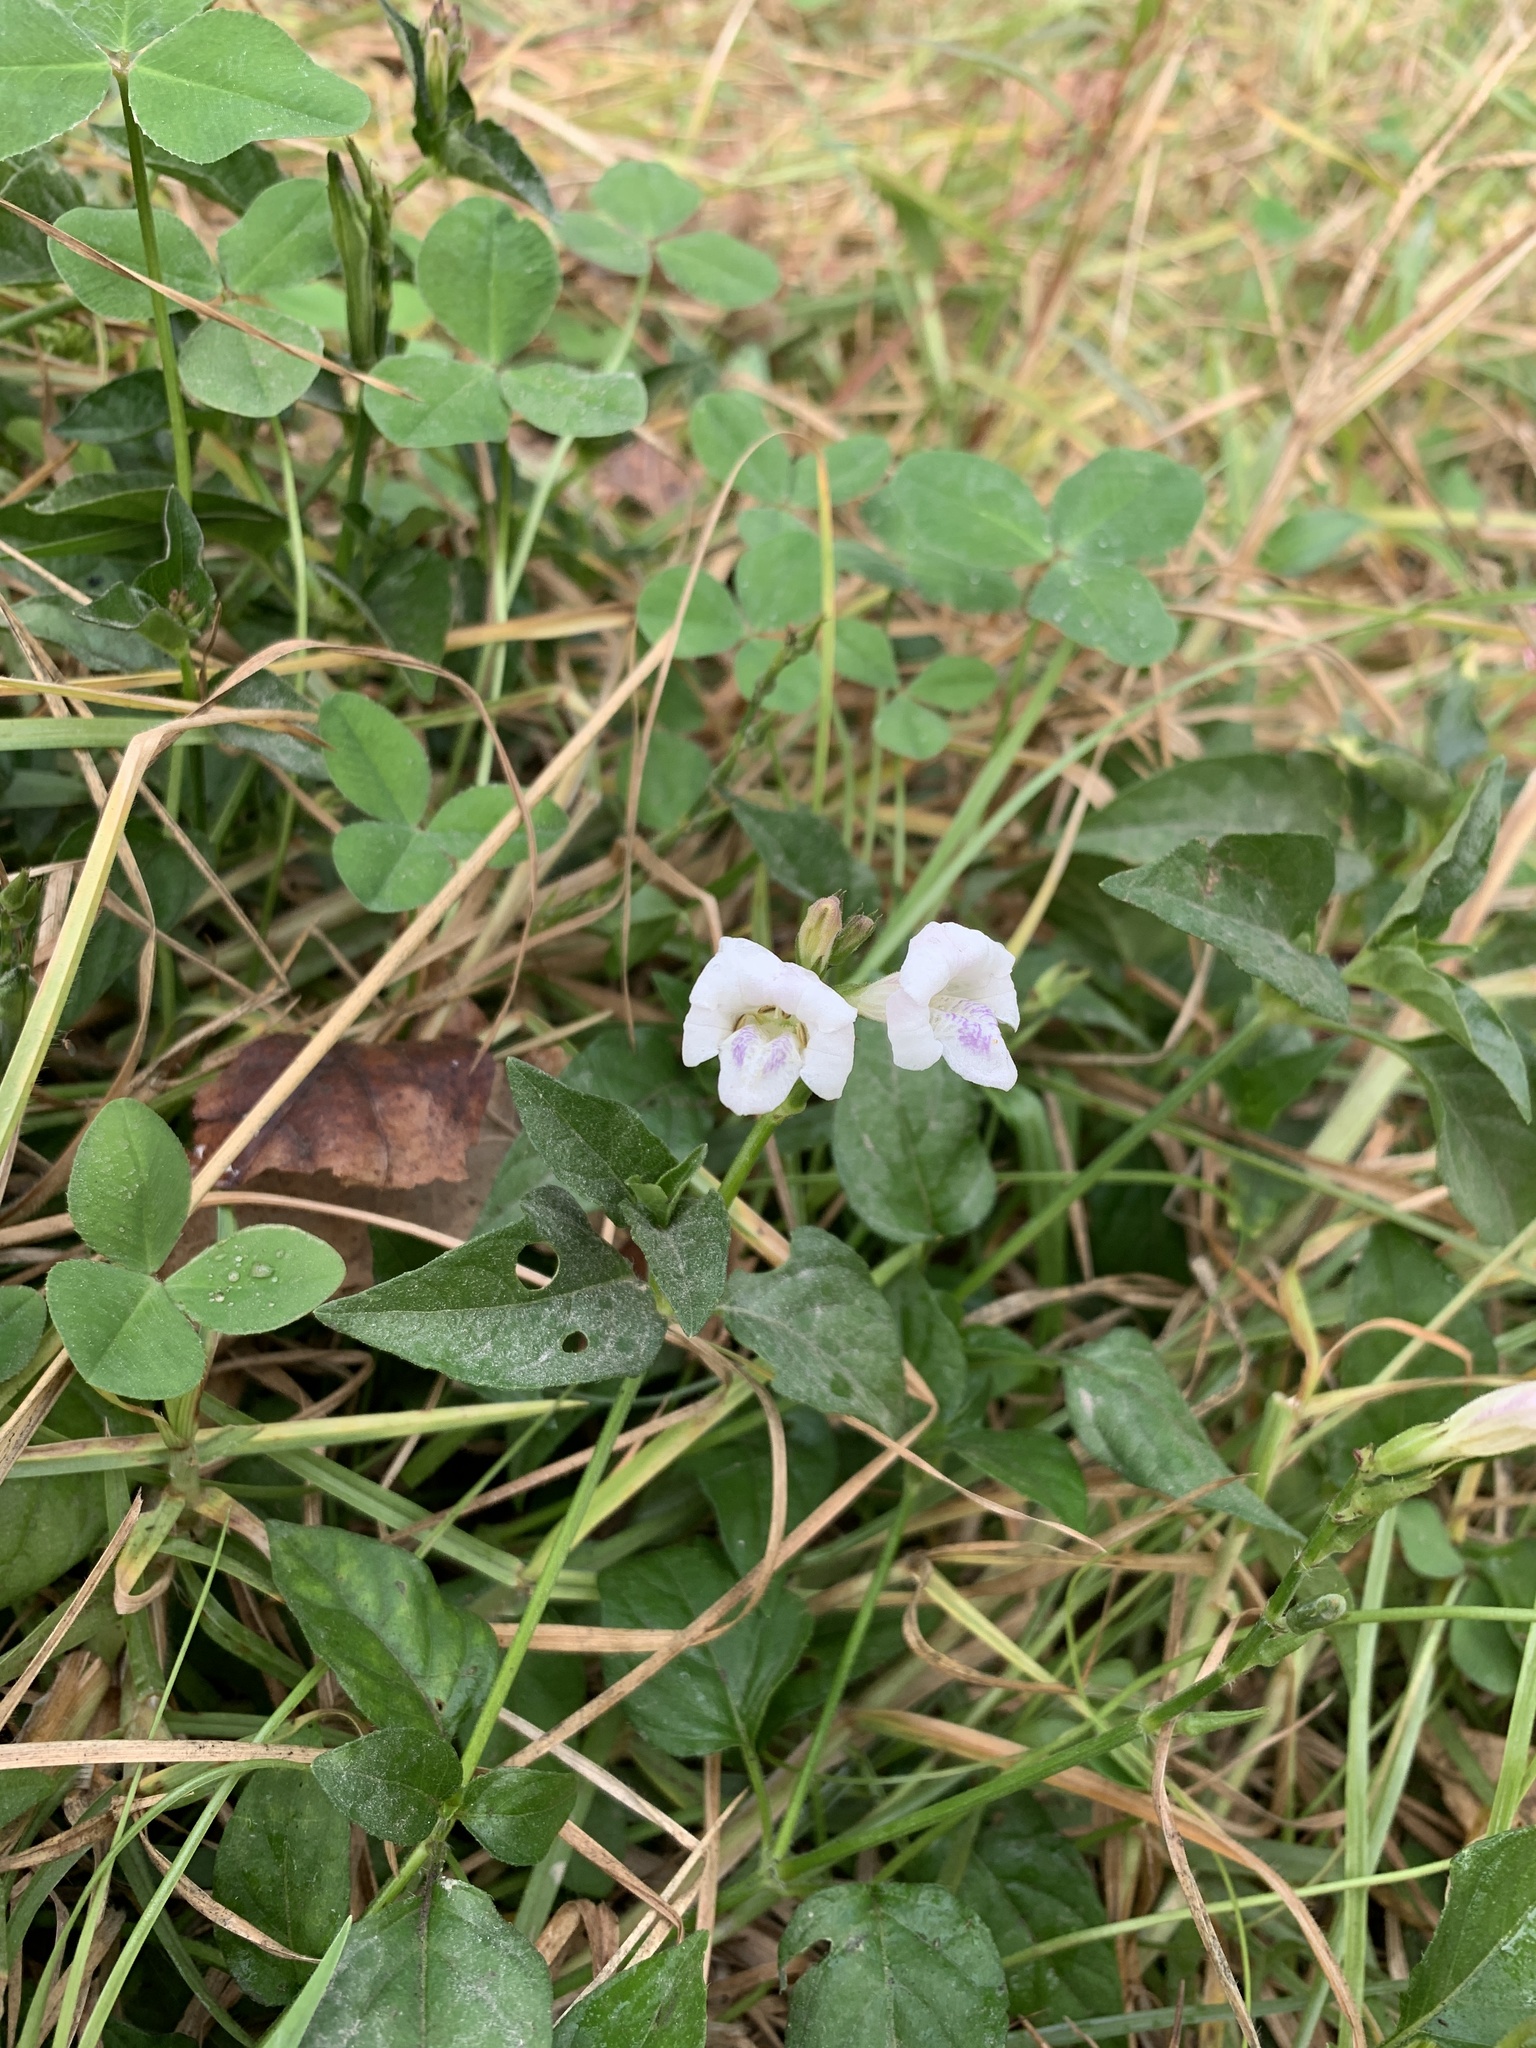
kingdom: Plantae
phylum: Tracheophyta
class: Magnoliopsida
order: Lamiales
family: Acanthaceae
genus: Asystasia
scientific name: Asystasia intrusa
